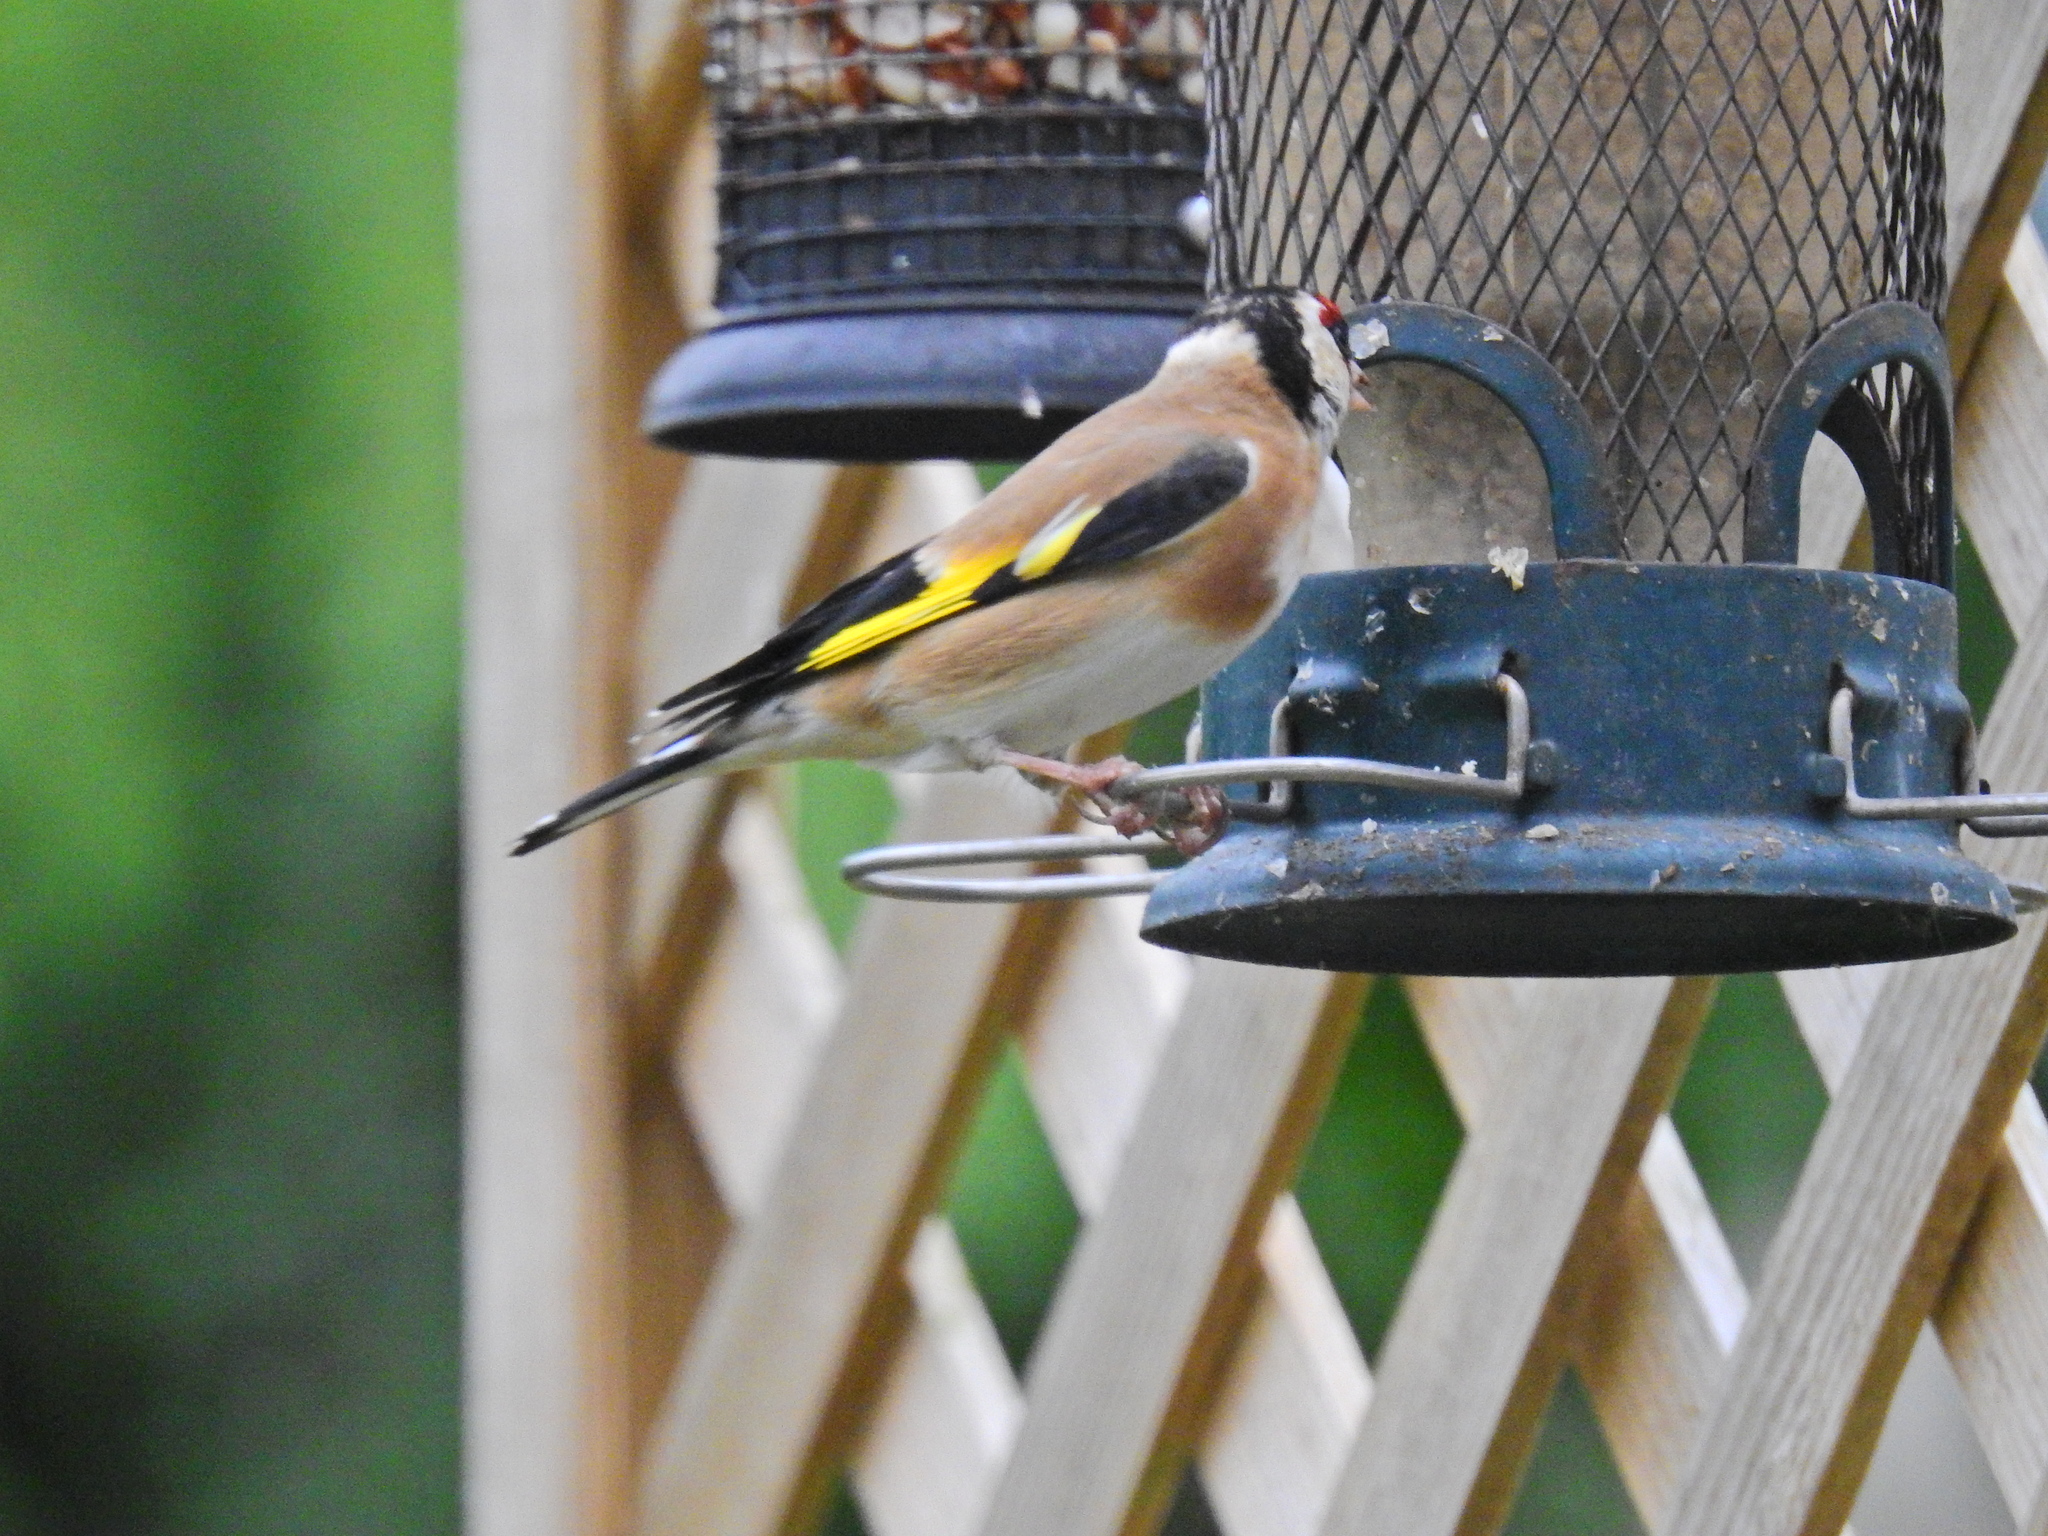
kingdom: Animalia
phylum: Chordata
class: Aves
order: Passeriformes
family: Fringillidae
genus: Carduelis
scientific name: Carduelis carduelis
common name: European goldfinch
